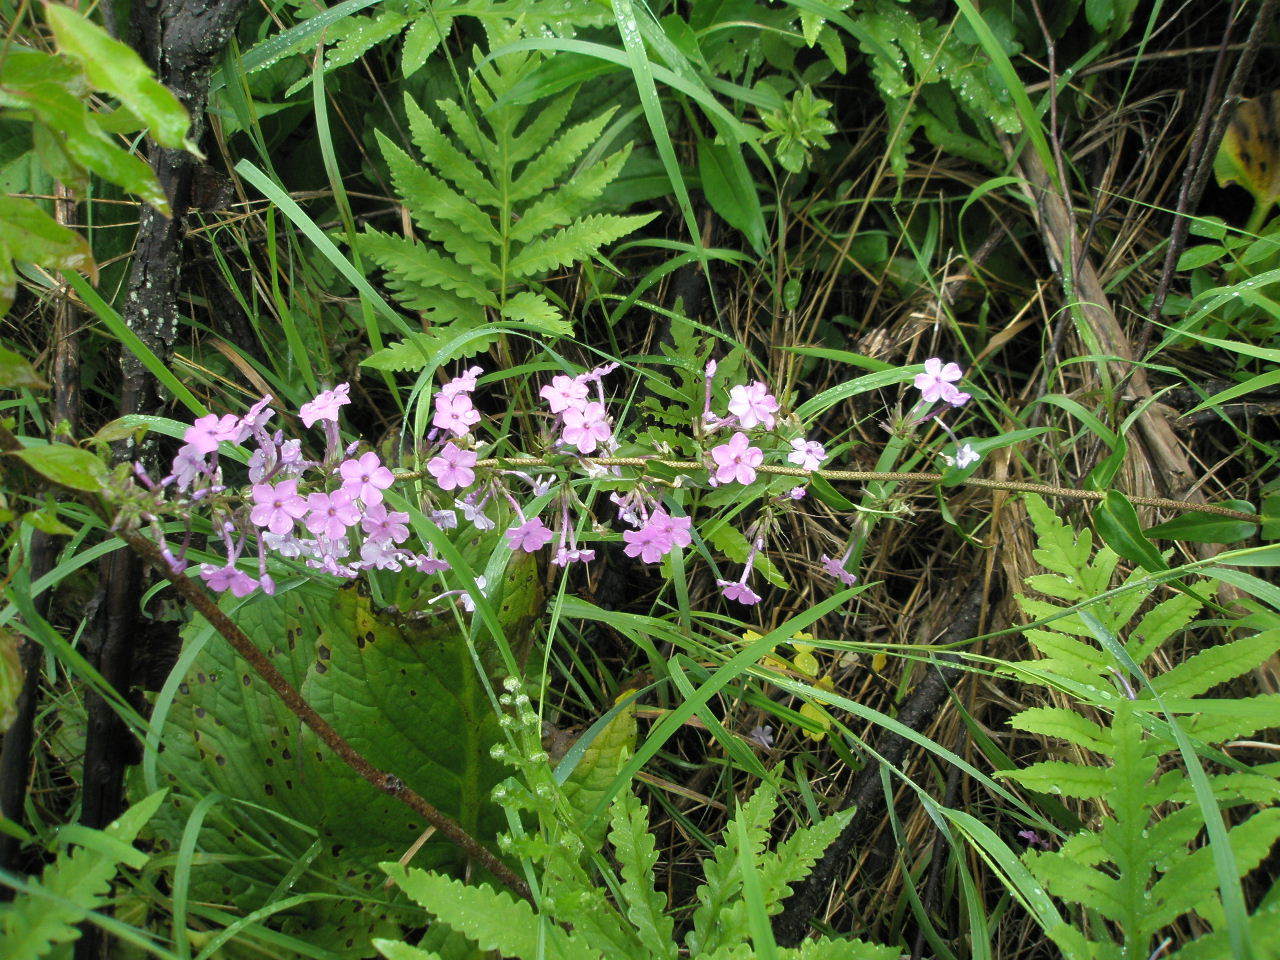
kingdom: Plantae
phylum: Tracheophyta
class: Magnoliopsida
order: Ericales
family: Polemoniaceae
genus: Phlox
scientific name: Phlox maculata
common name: Meadow phlox
